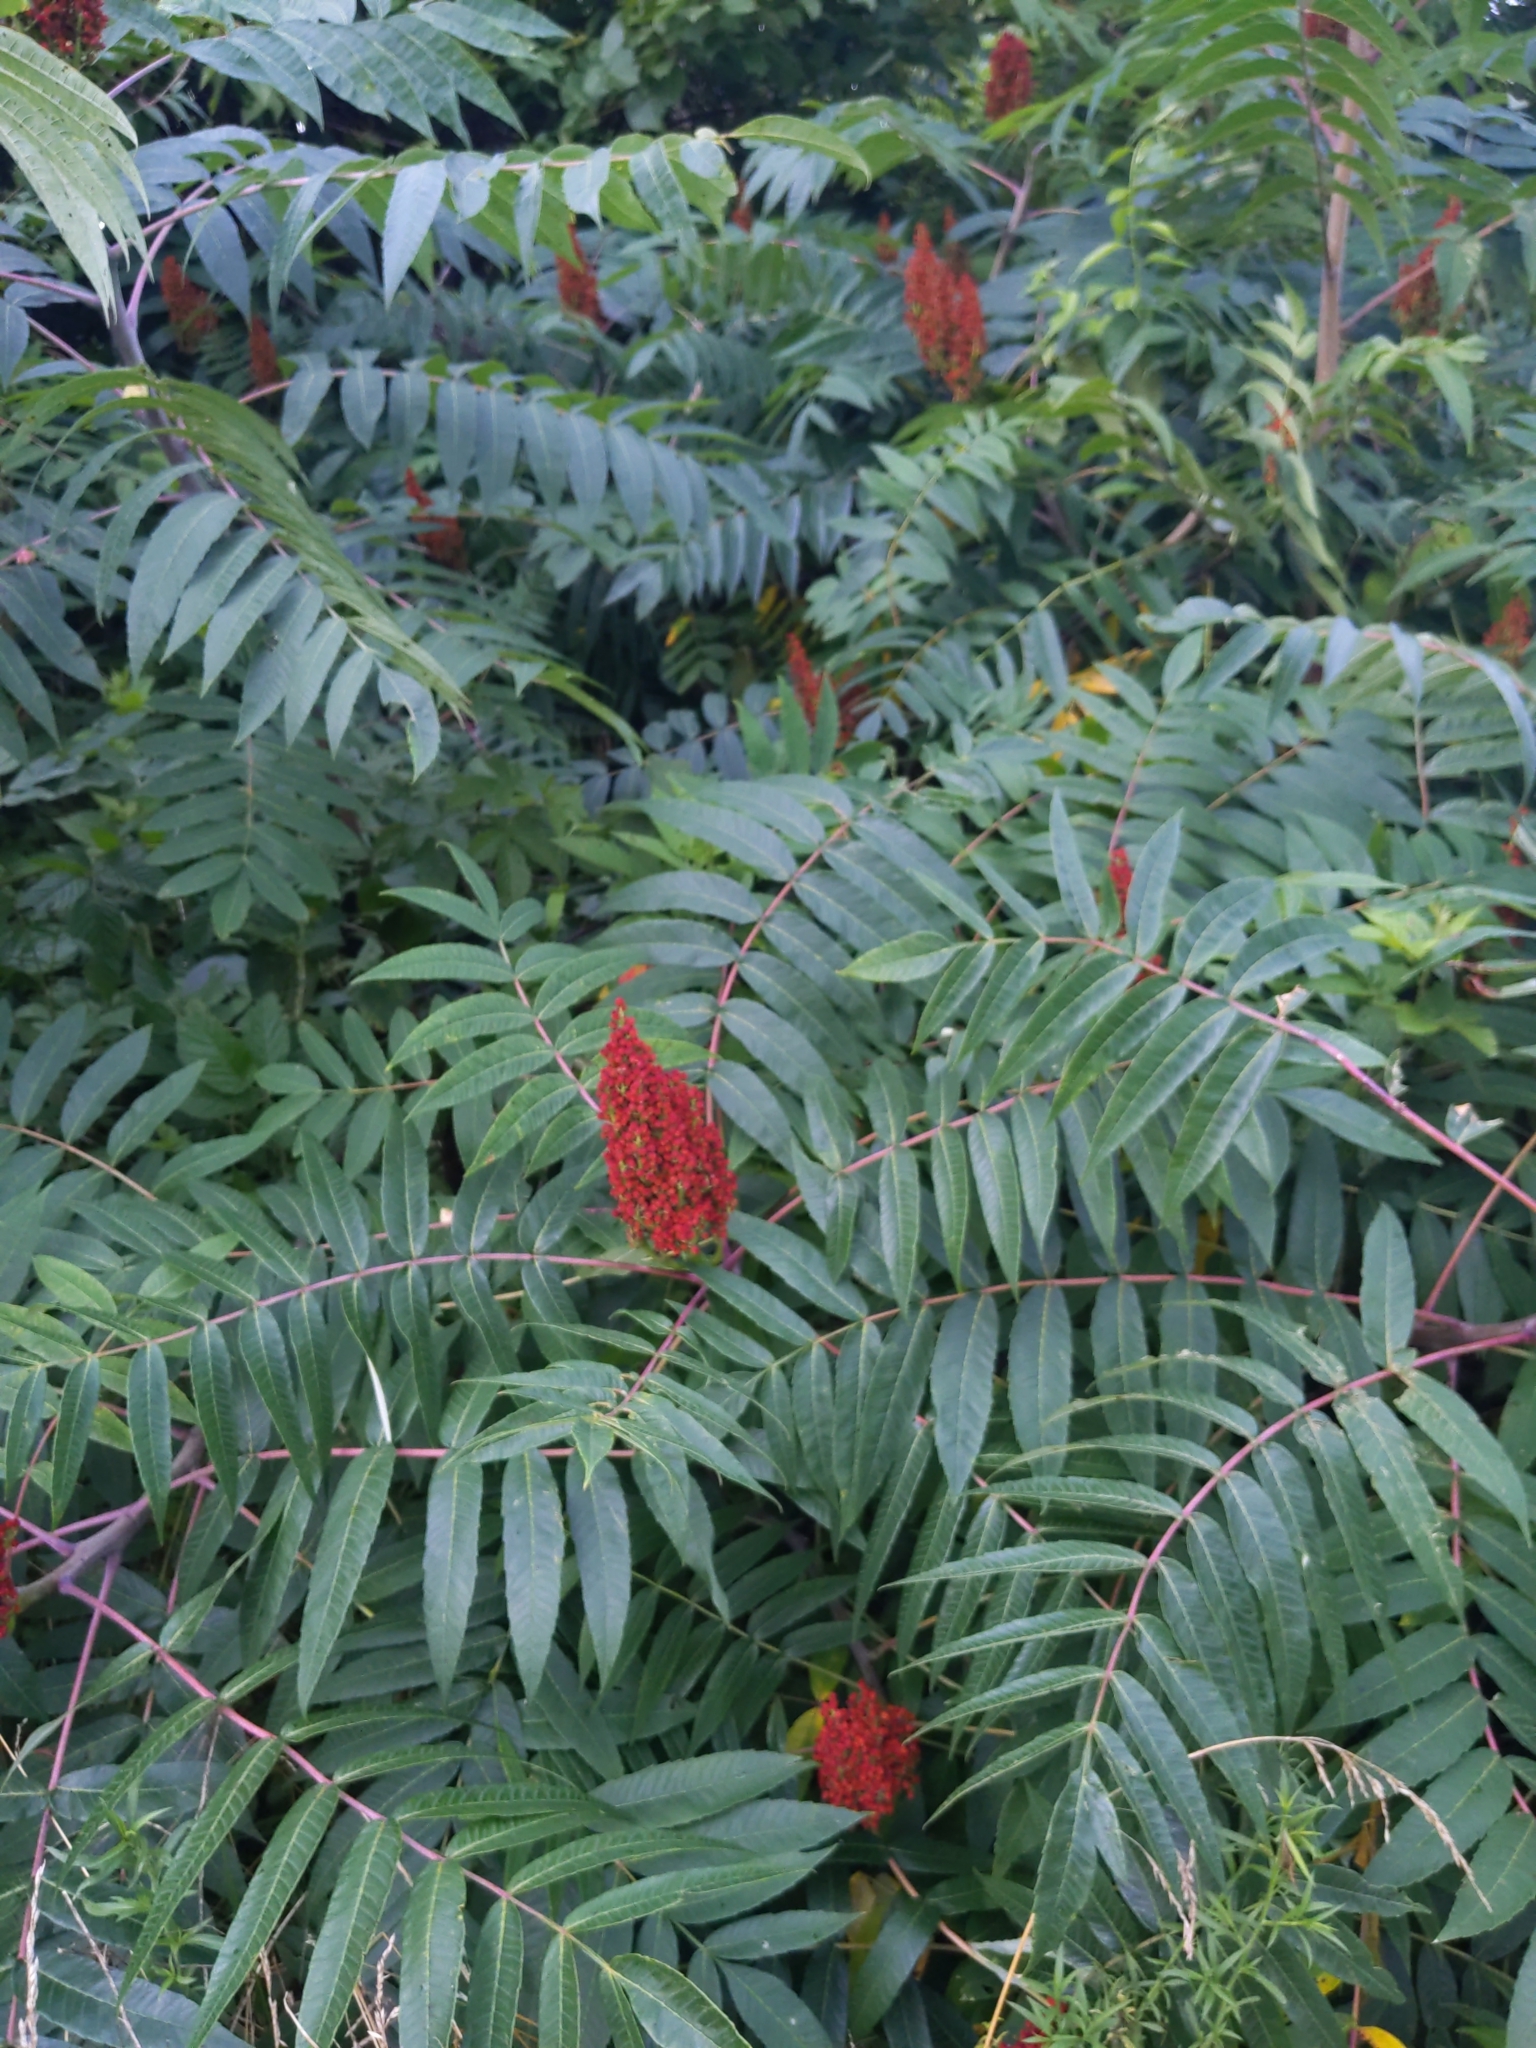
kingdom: Plantae
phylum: Tracheophyta
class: Magnoliopsida
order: Sapindales
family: Anacardiaceae
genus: Rhus
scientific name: Rhus glabra
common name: Scarlet sumac
